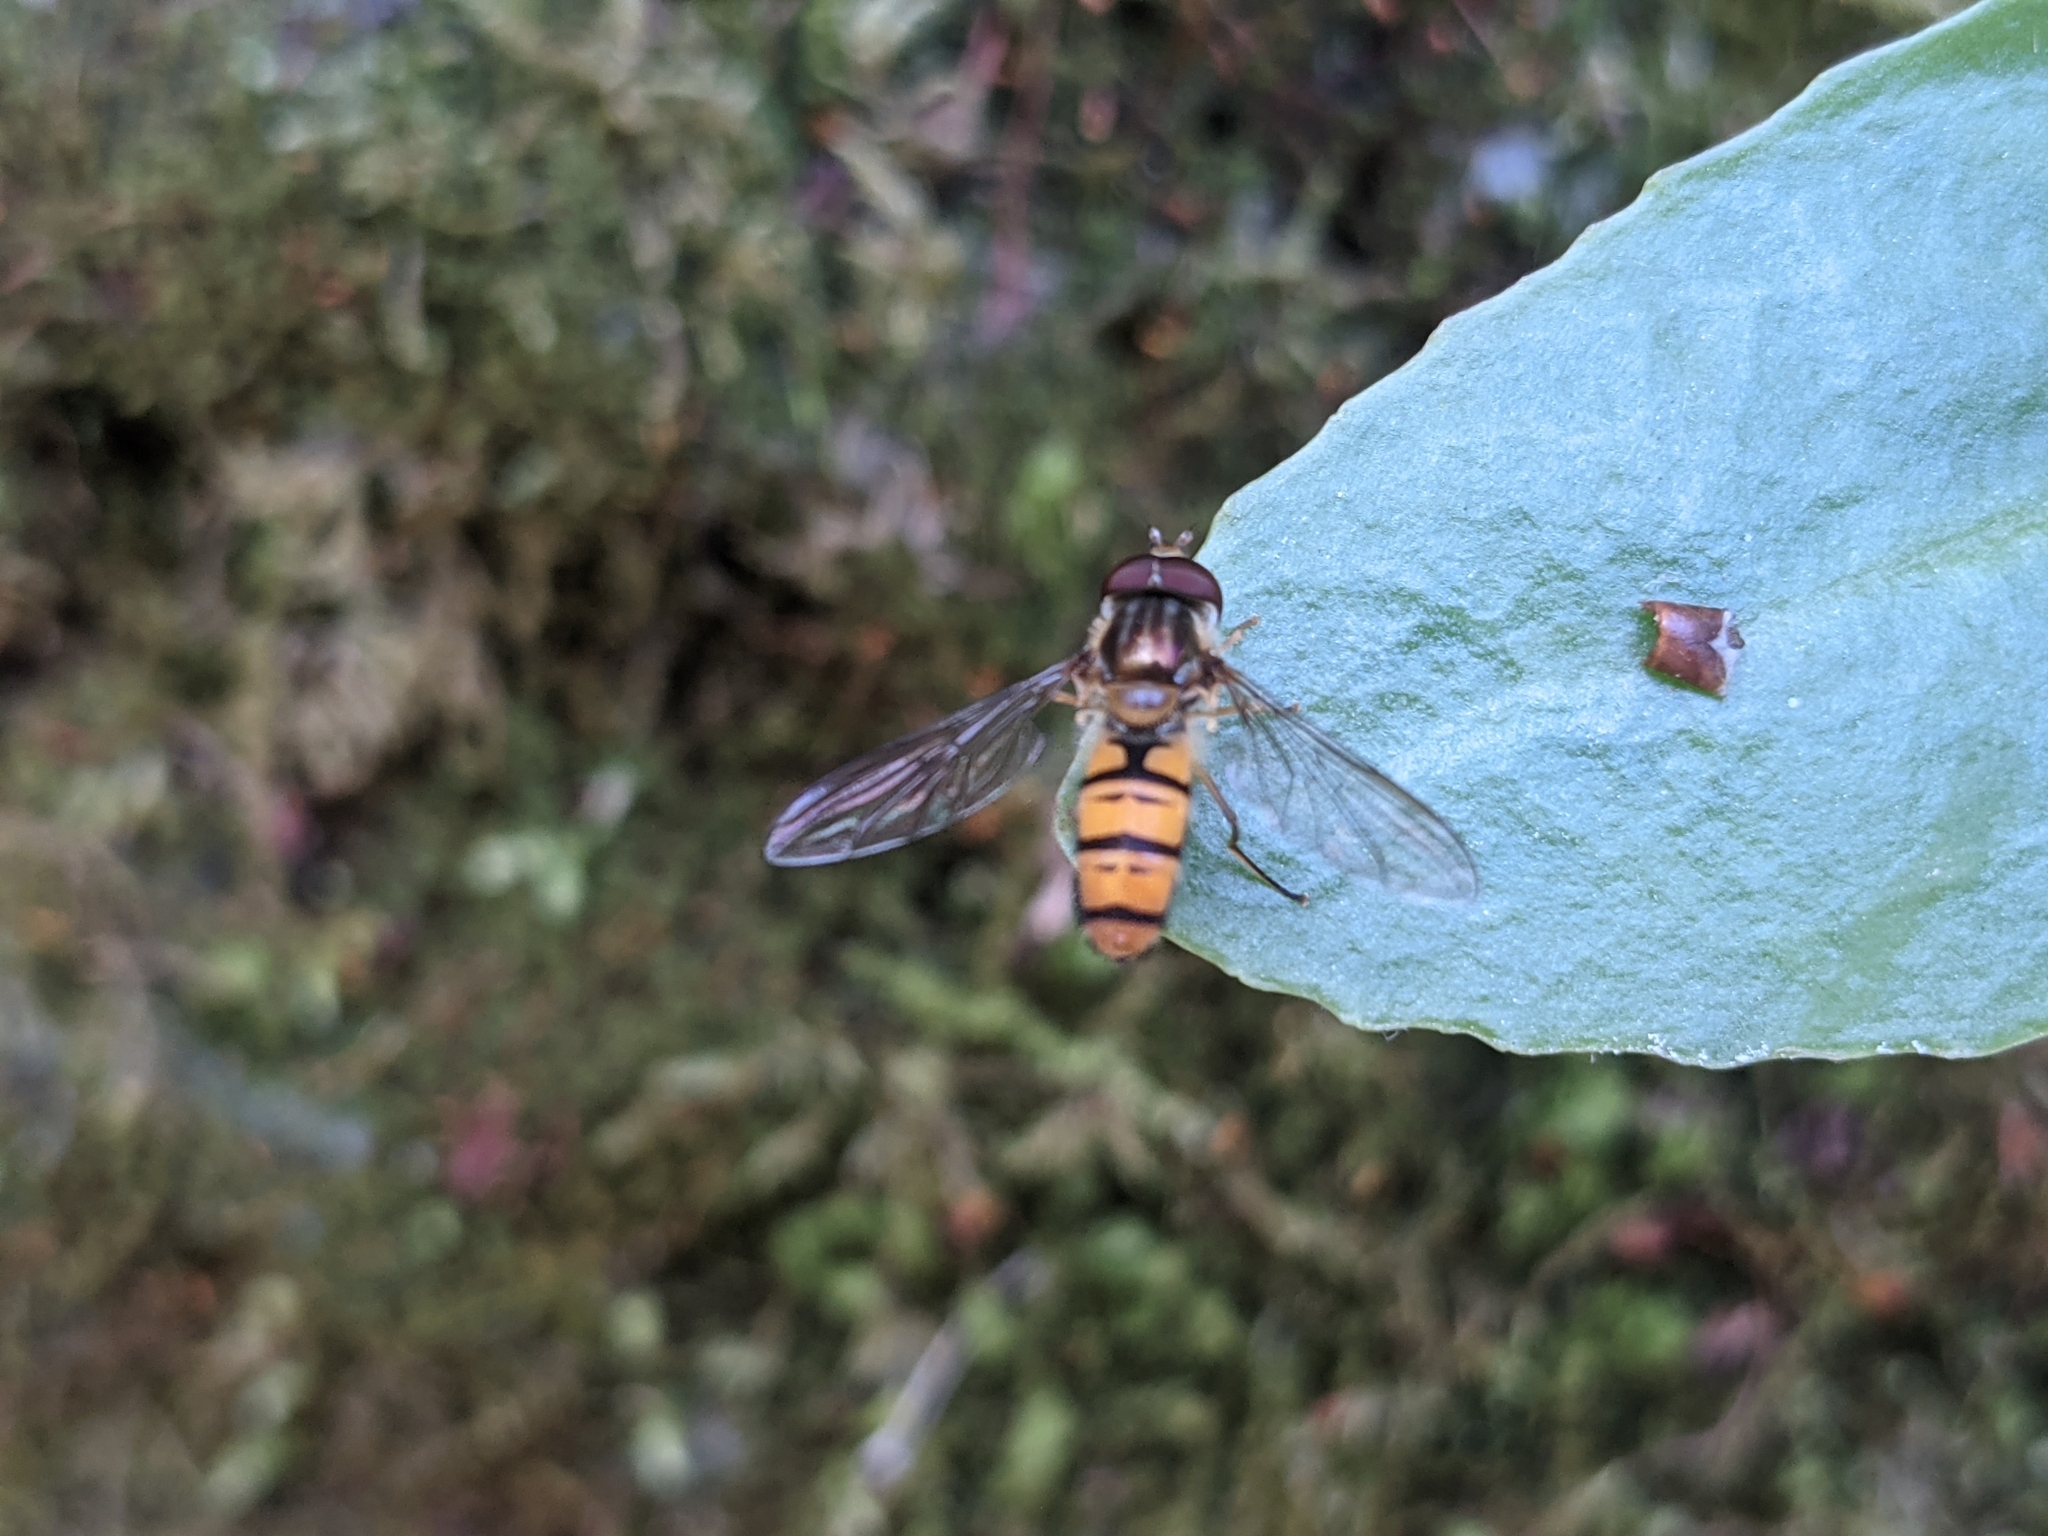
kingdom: Animalia
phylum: Arthropoda
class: Insecta
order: Diptera
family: Syrphidae
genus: Episyrphus
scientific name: Episyrphus balteatus
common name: Marmalade hoverfly
